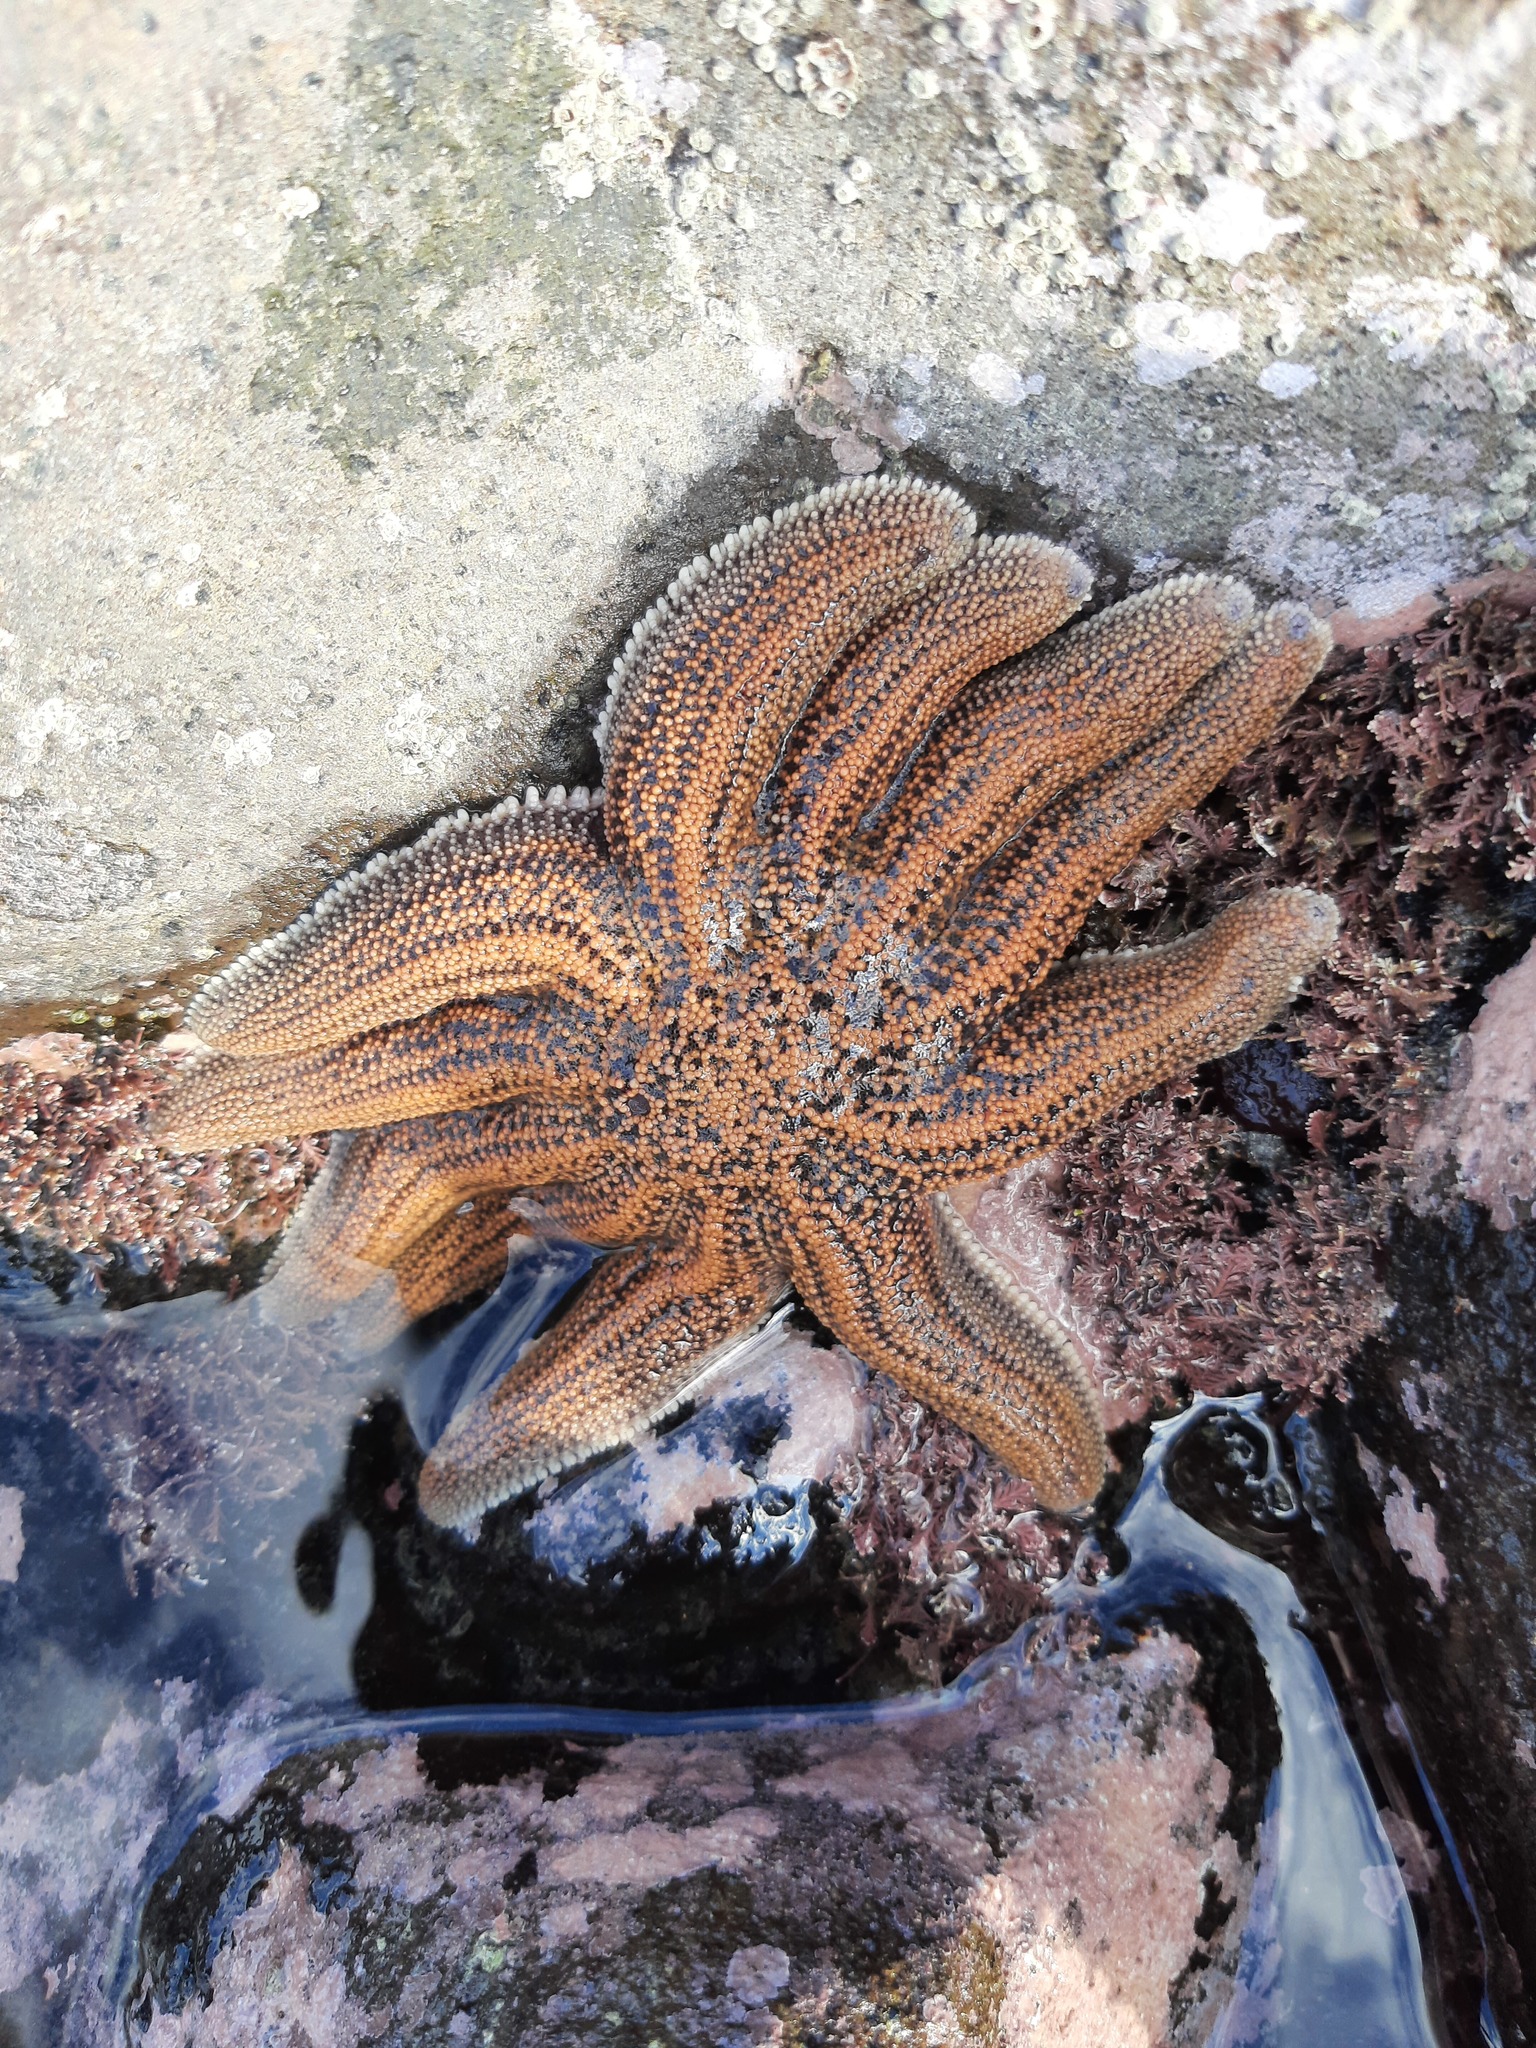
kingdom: Animalia
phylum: Echinodermata
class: Asteroidea
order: Forcipulatida
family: Stichasteridae
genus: Stichaster
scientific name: Stichaster australis
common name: Reef starfish
